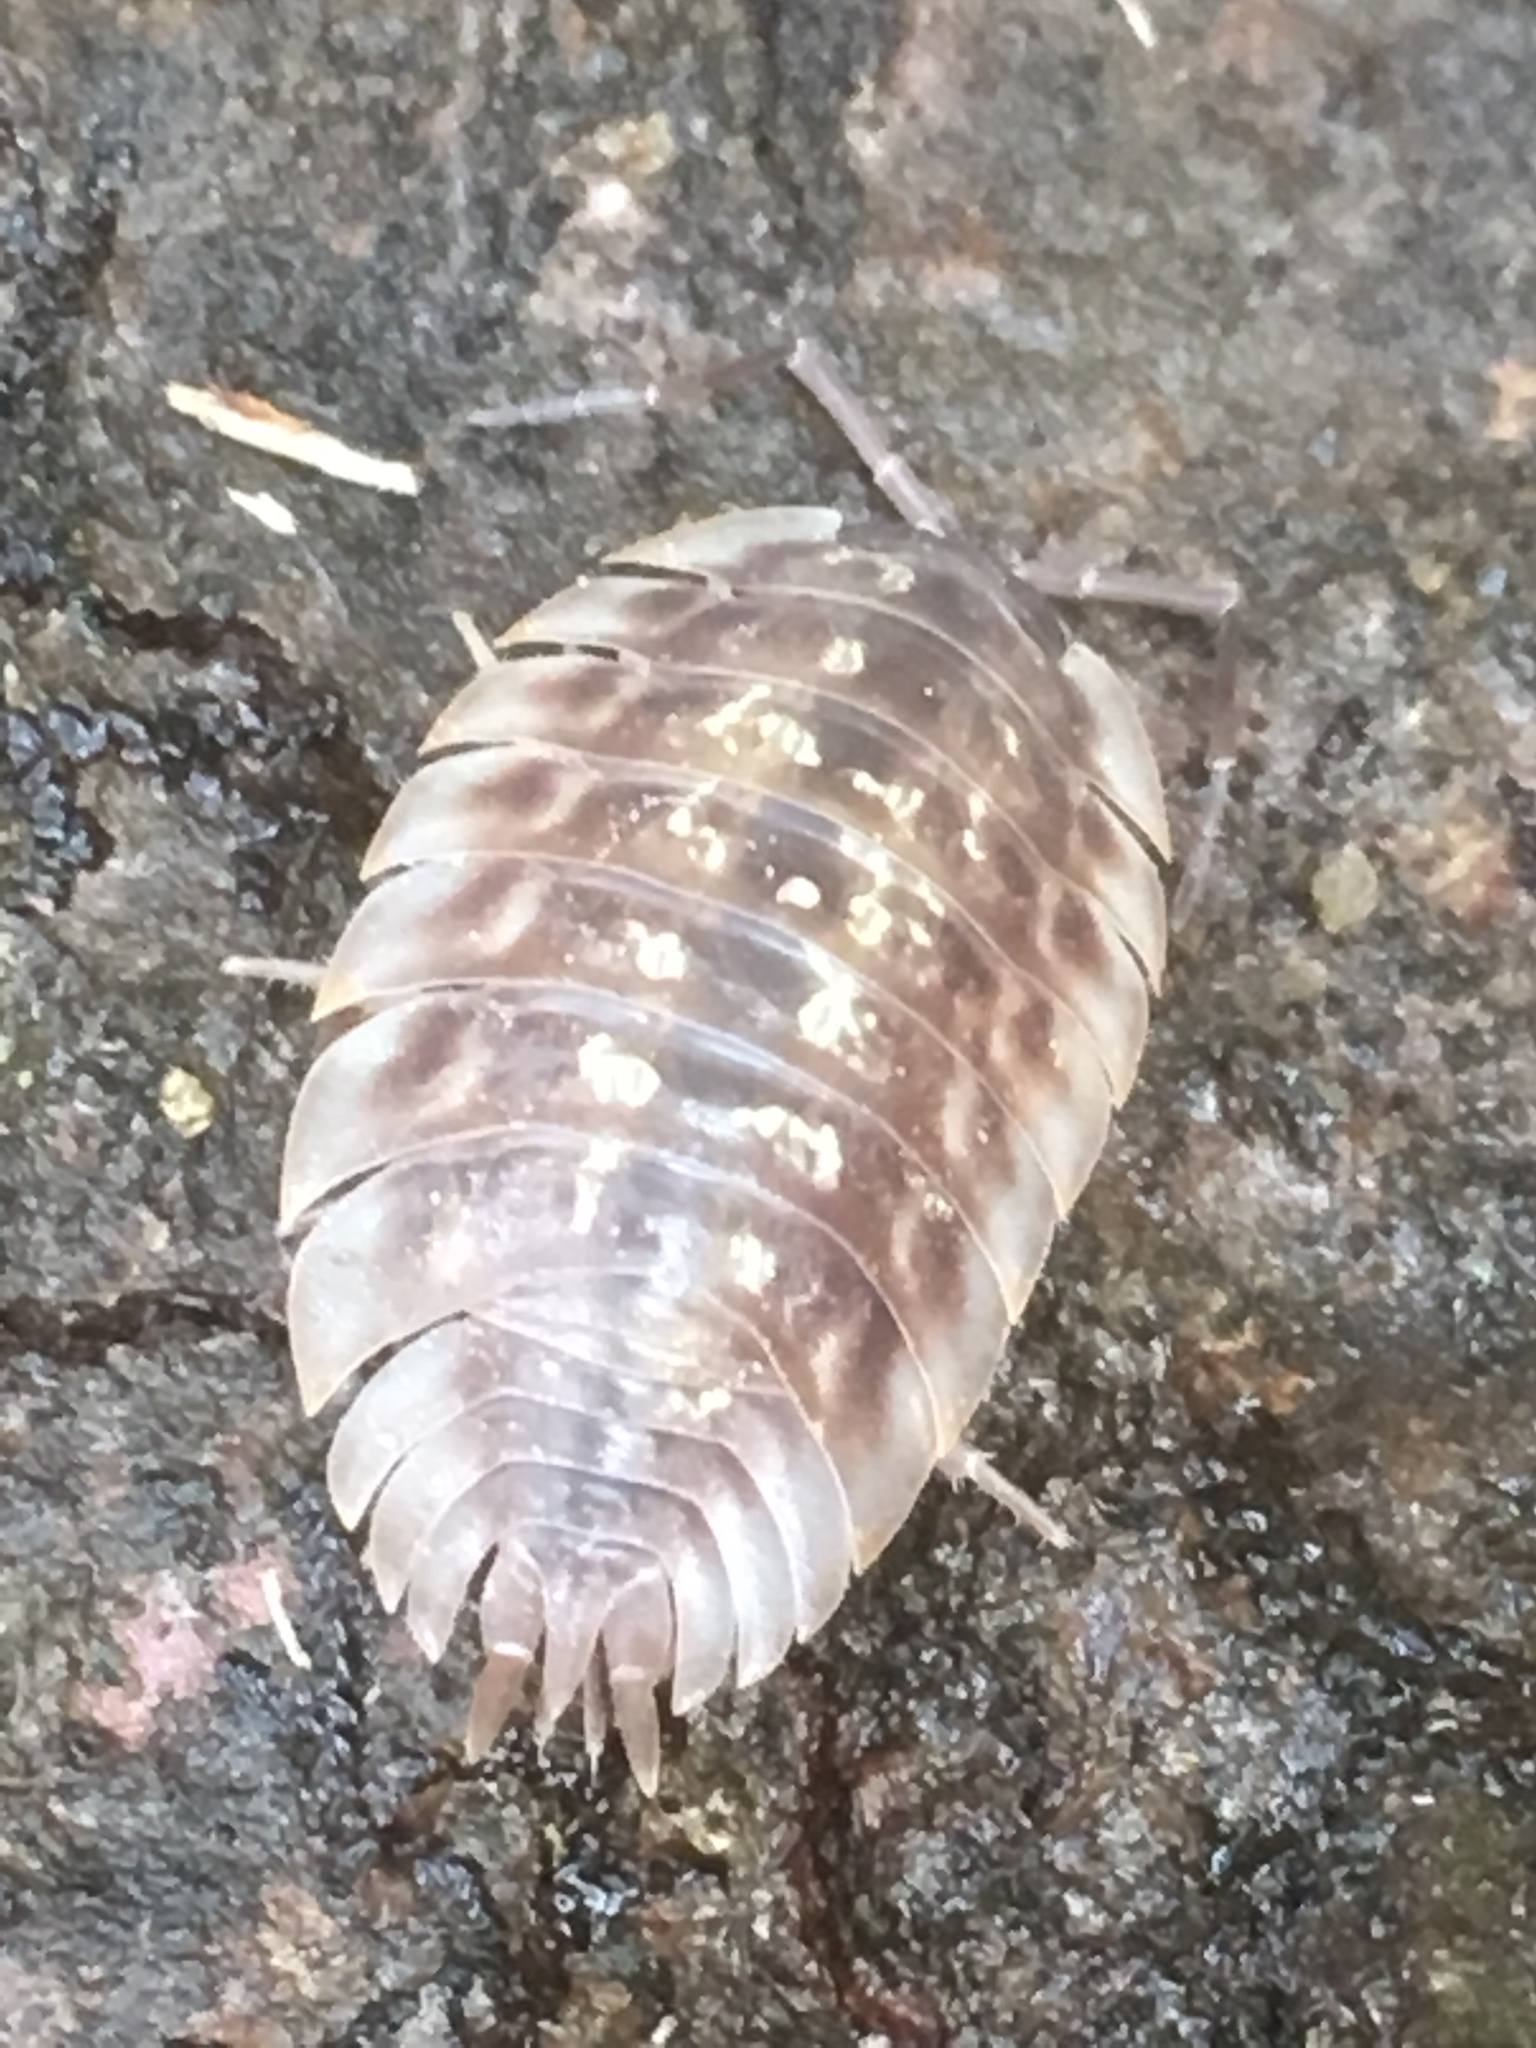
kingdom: Animalia
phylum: Arthropoda
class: Malacostraca
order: Isopoda
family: Oniscidae
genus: Oniscus
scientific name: Oniscus asellus
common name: Common shiny woodlouse
